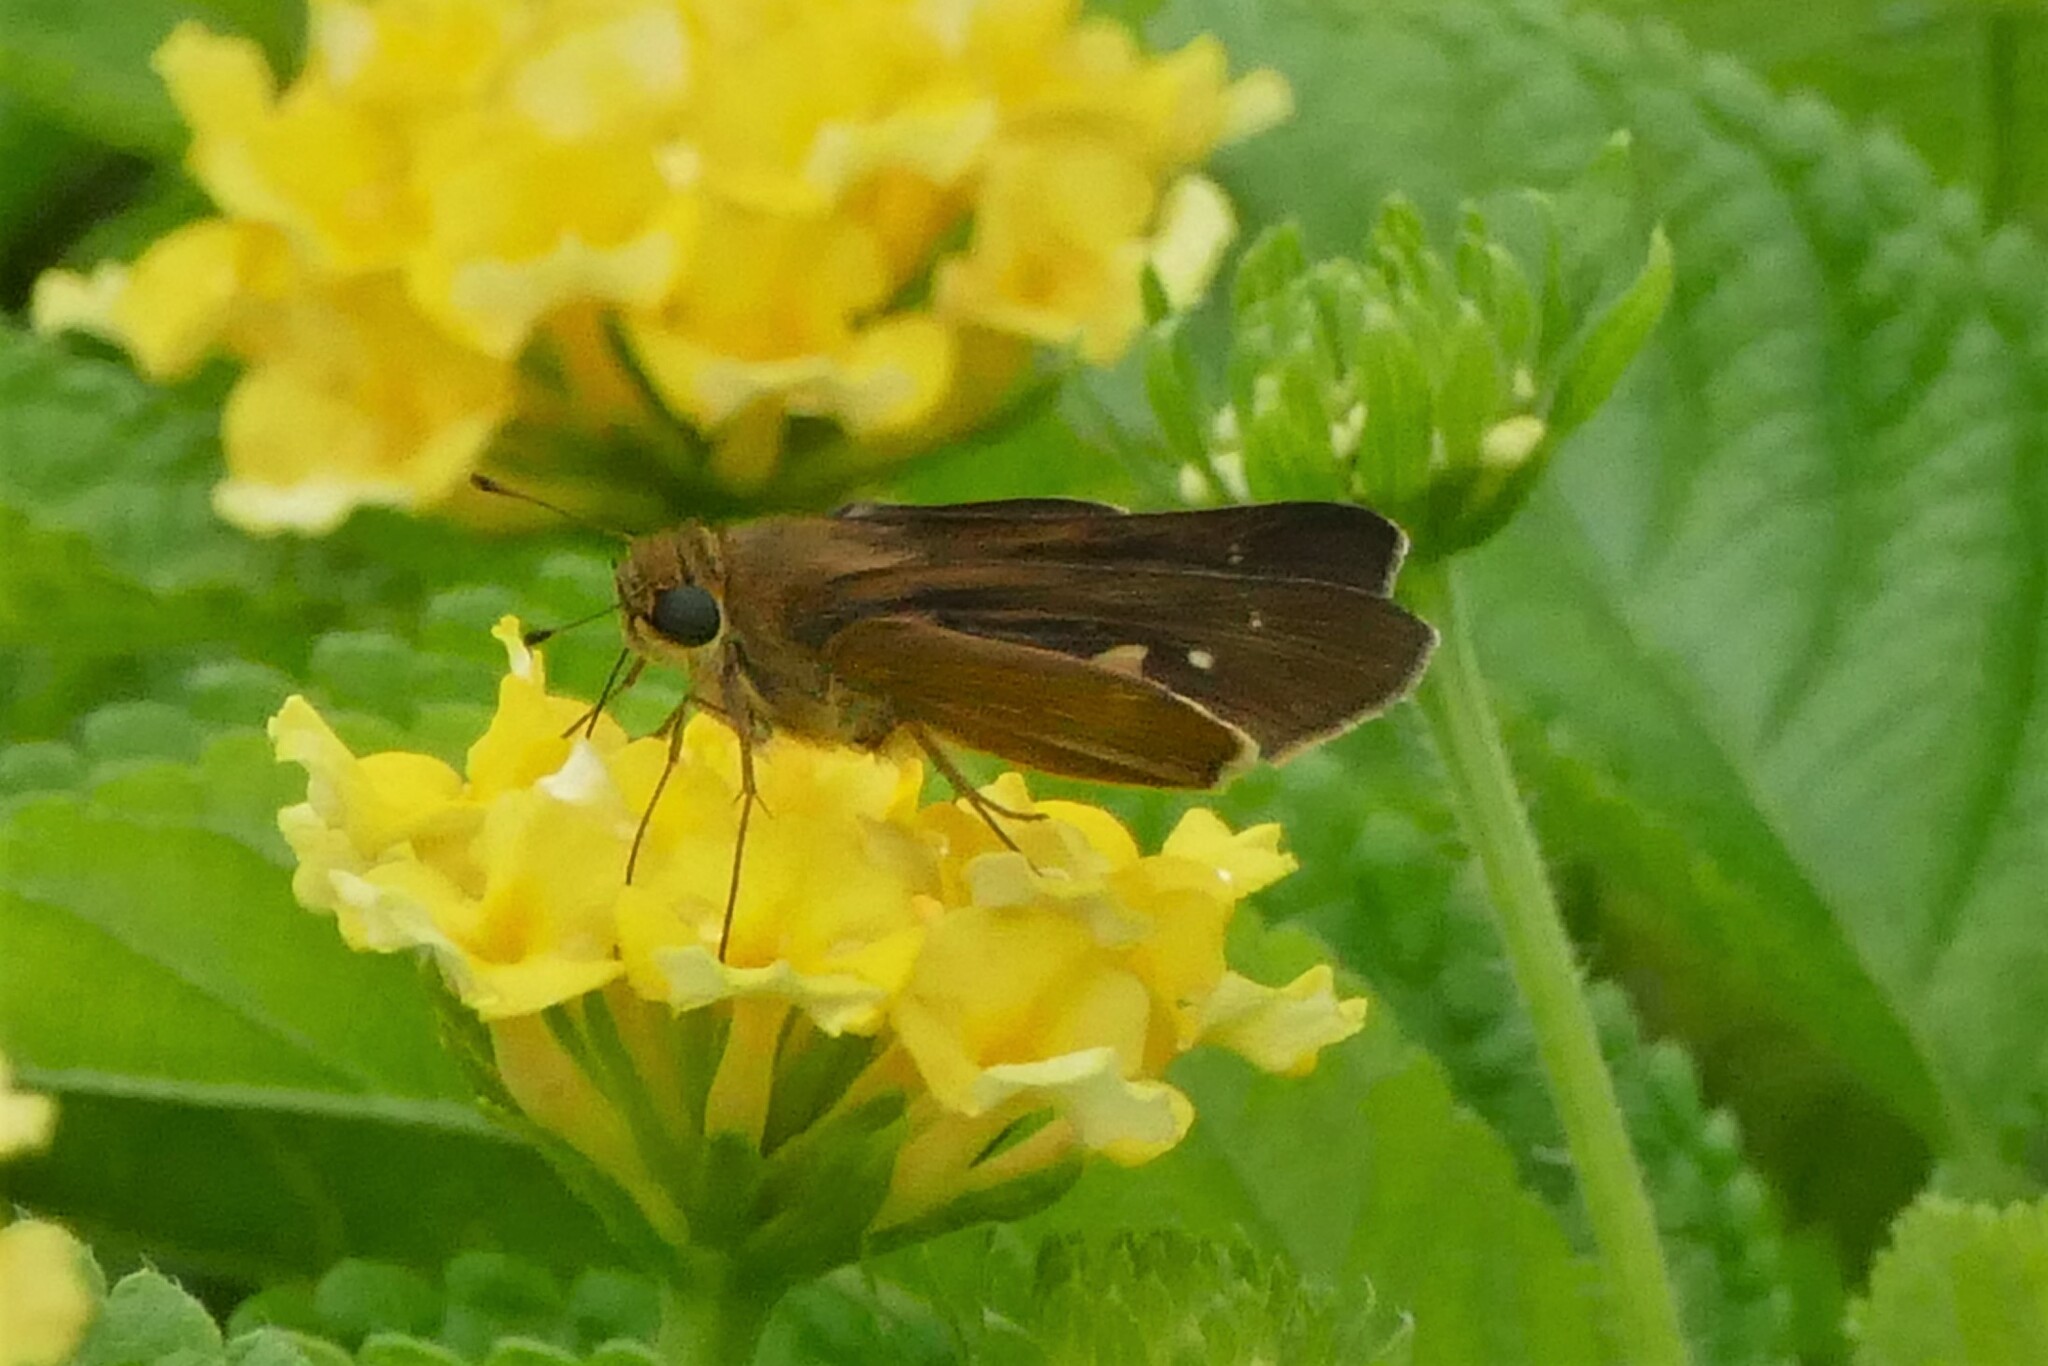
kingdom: Animalia
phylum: Arthropoda
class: Insecta
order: Lepidoptera
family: Hesperiidae
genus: Panoquina
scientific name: Panoquina ocola
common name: Ocola skipper
